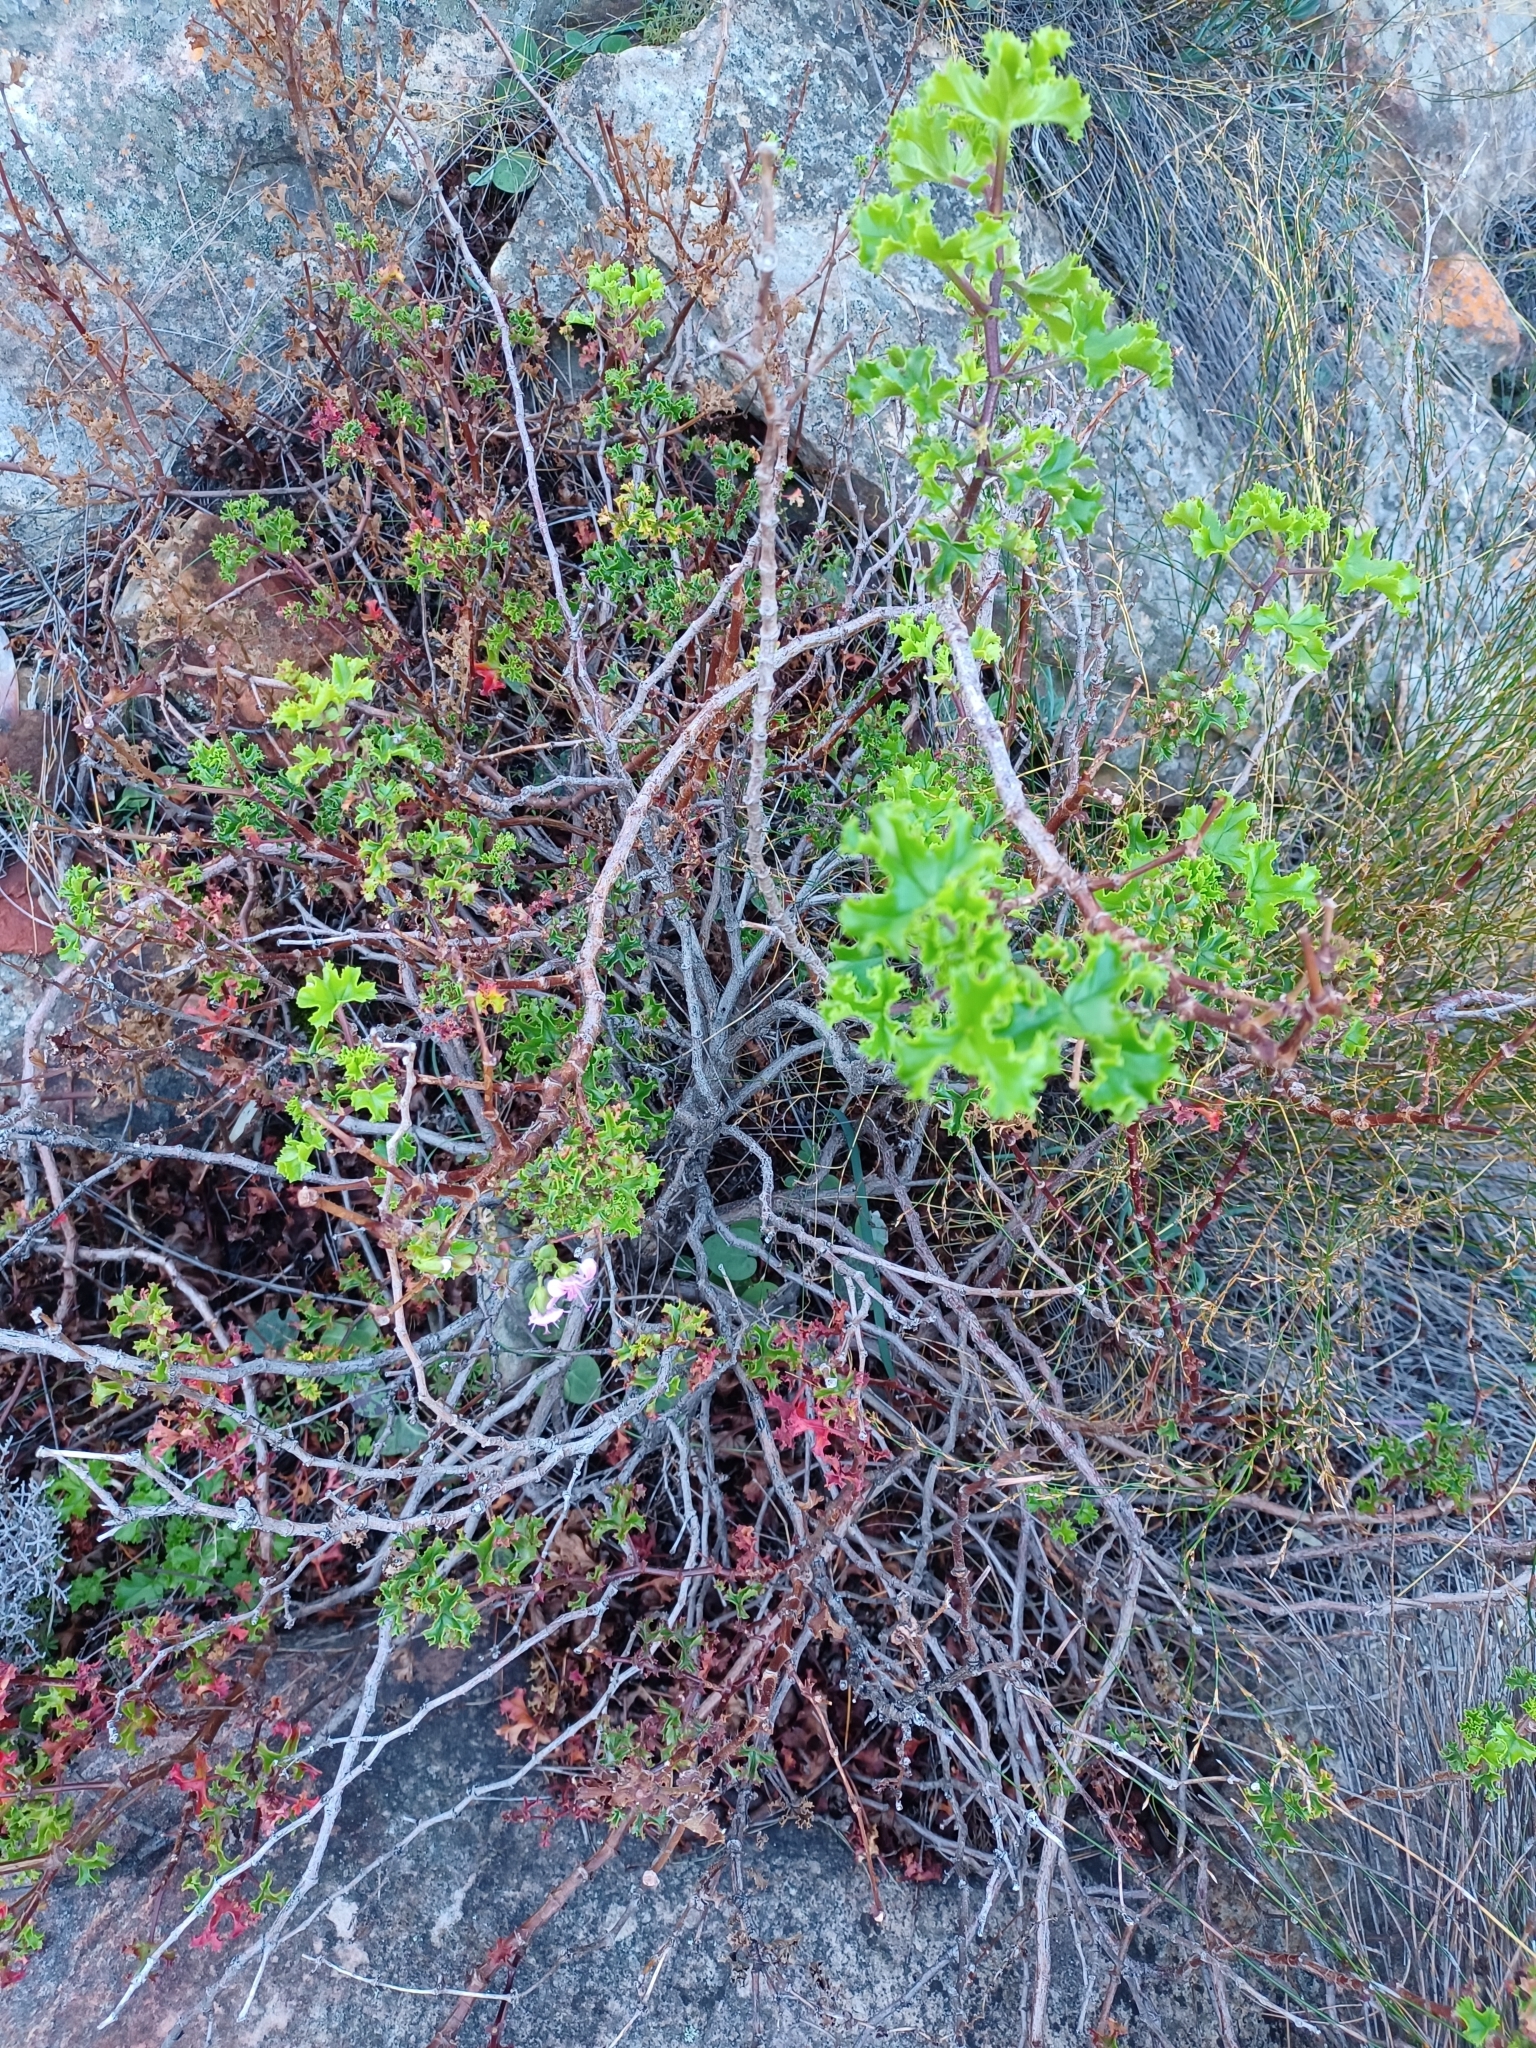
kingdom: Plantae
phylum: Tracheophyta
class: Magnoliopsida
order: Geraniales
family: Geraniaceae
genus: Pelargonium
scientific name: Pelargonium englerianum
